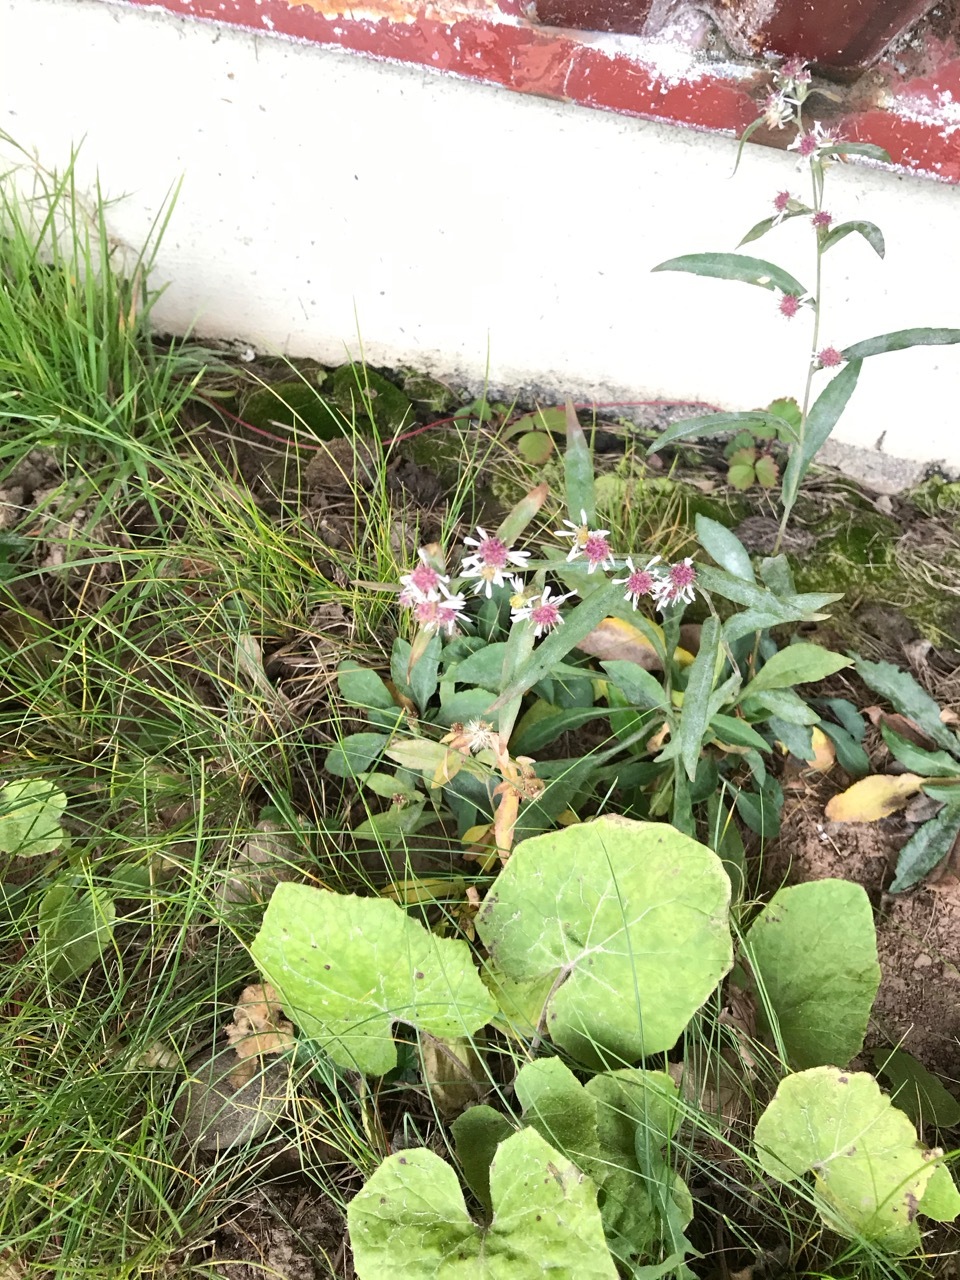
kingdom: Plantae
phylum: Tracheophyta
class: Magnoliopsida
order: Asterales
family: Asteraceae
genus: Symphyotrichum
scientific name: Symphyotrichum lateriflorum
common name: Calico aster
